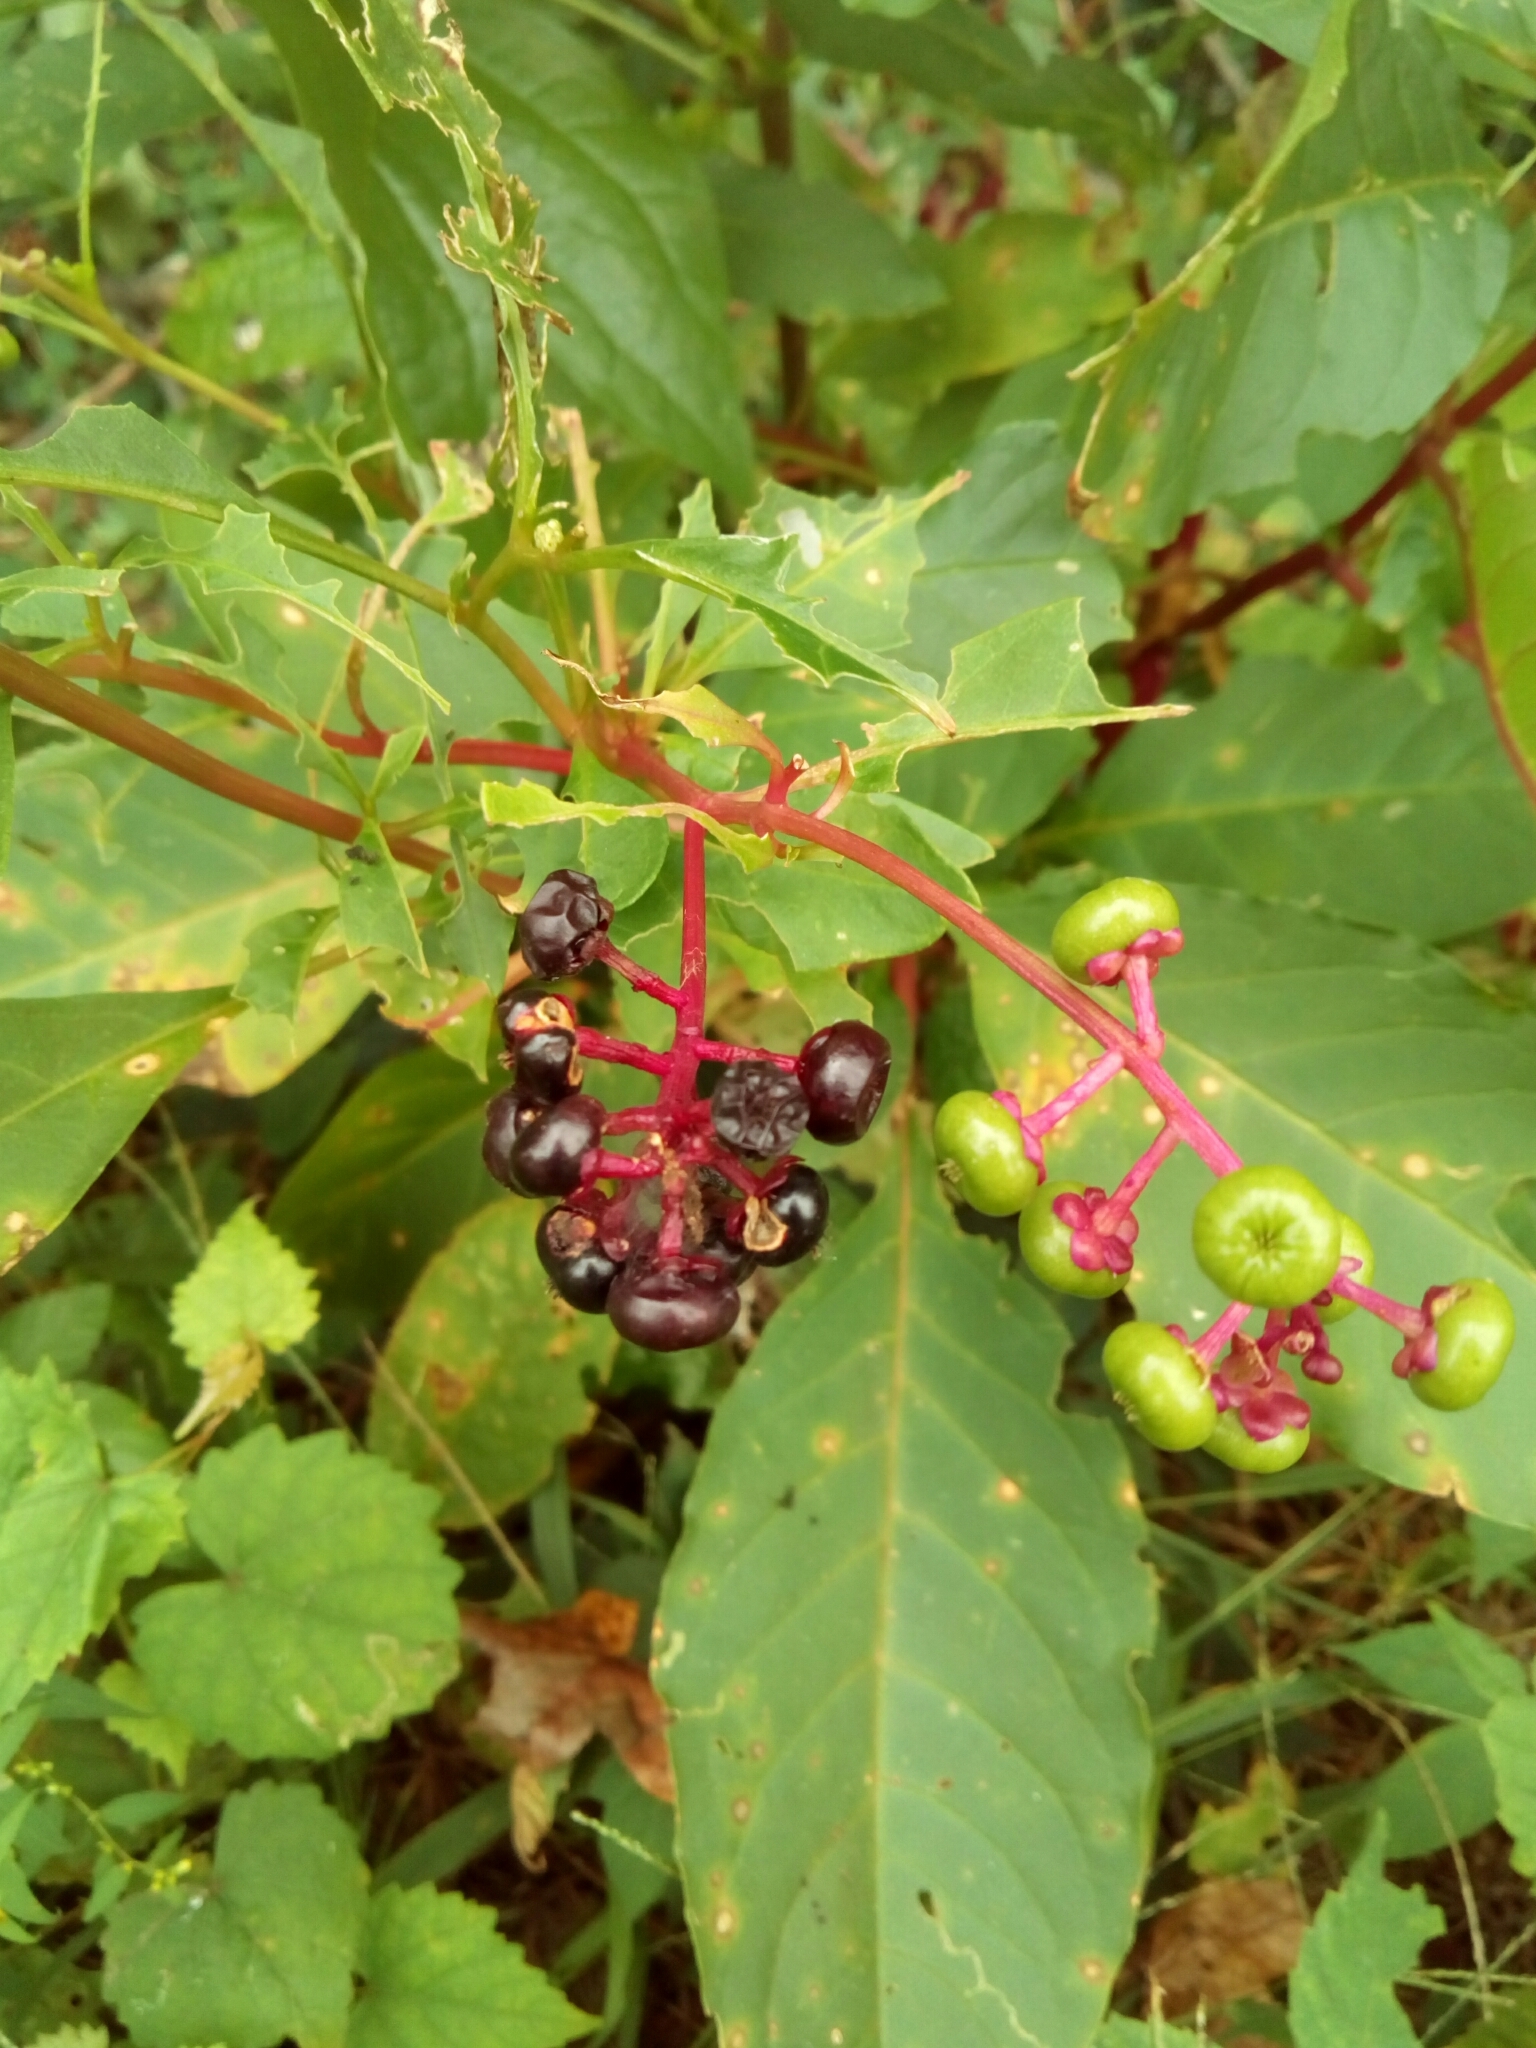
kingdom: Plantae
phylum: Tracheophyta
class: Magnoliopsida
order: Caryophyllales
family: Phytolaccaceae
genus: Phytolacca
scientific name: Phytolacca americana
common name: American pokeweed
